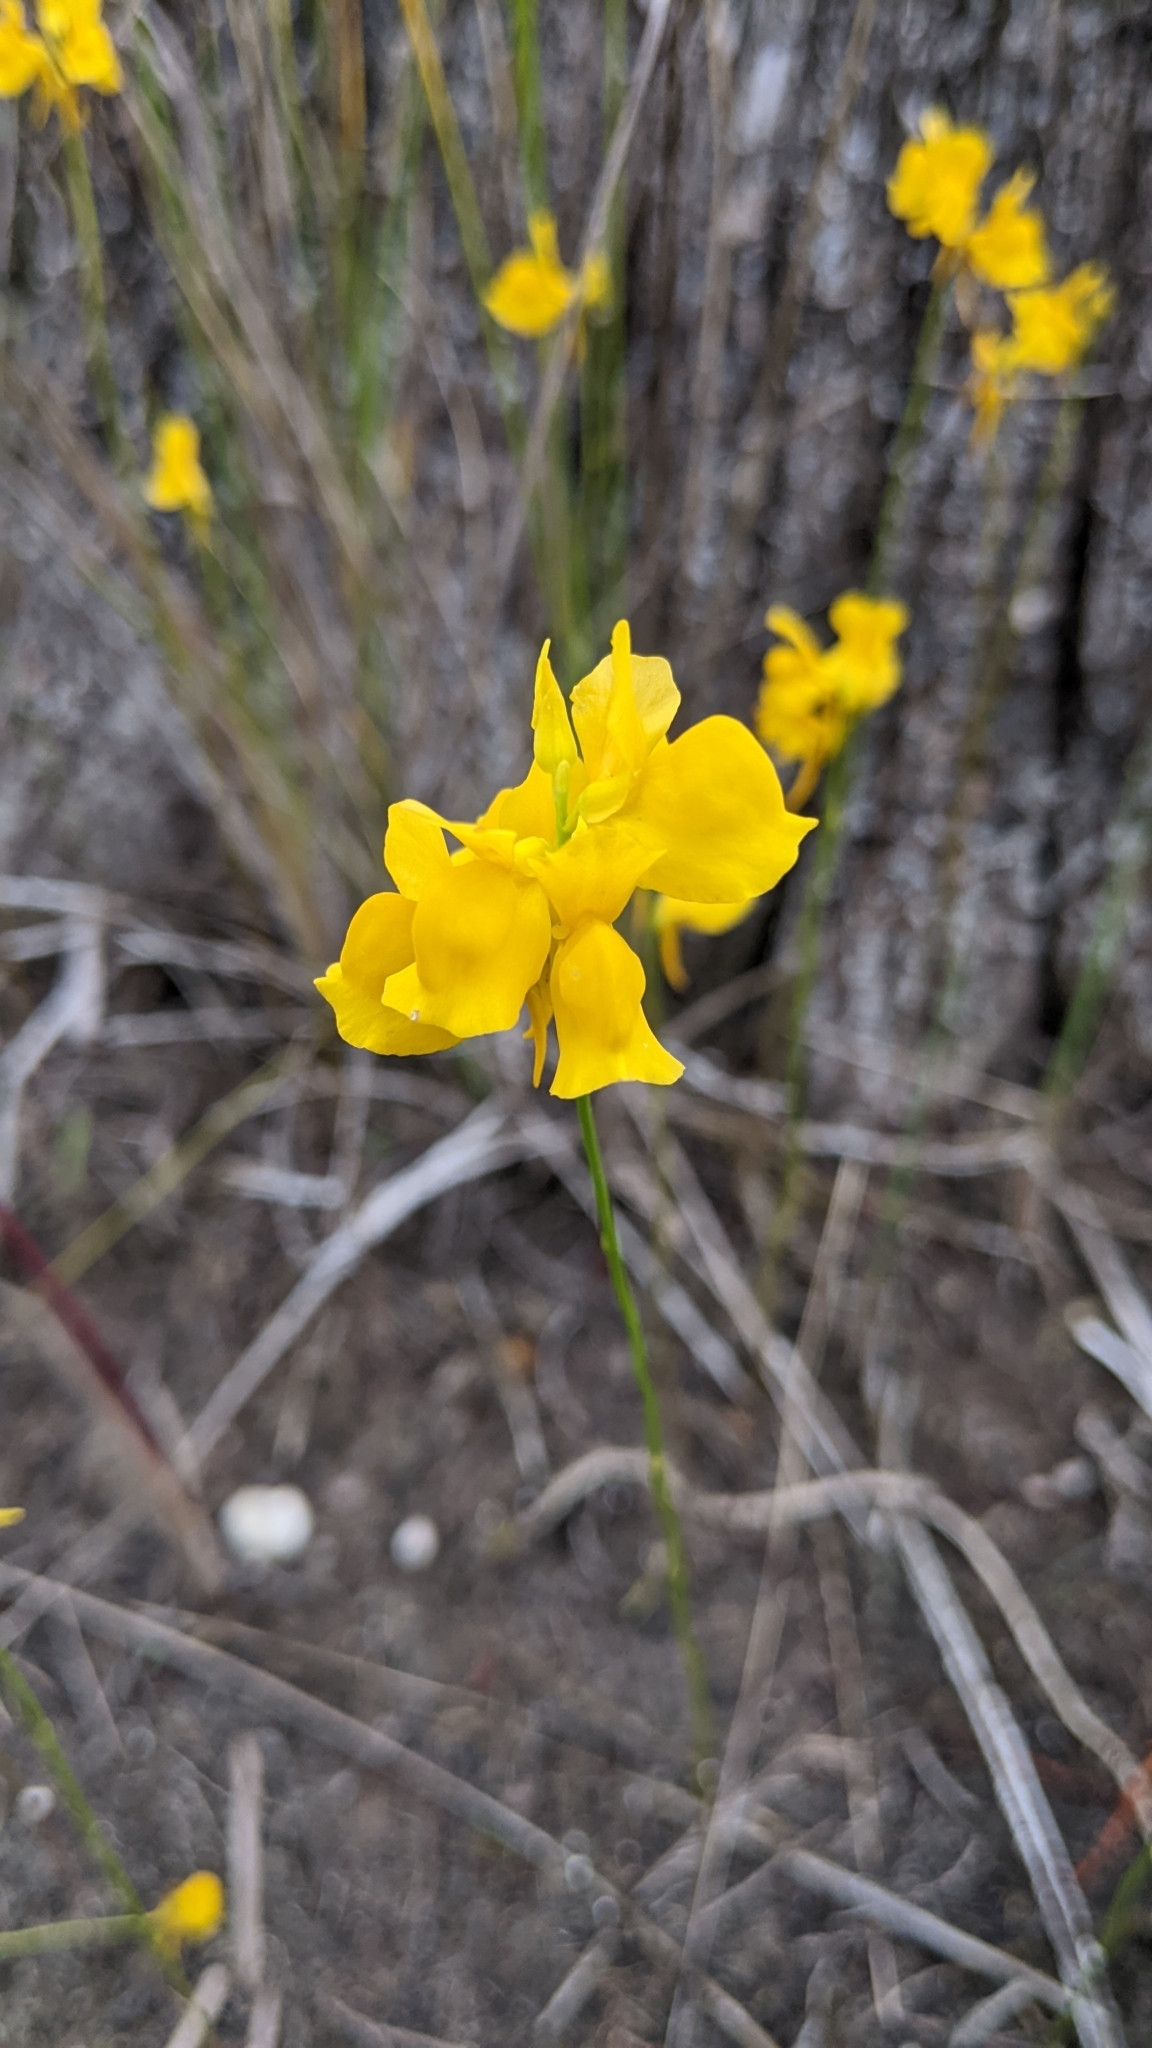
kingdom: Plantae
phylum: Tracheophyta
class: Magnoliopsida
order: Lamiales
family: Lentibulariaceae
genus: Utricularia
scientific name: Utricularia cornuta
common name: Horned bladderwort
